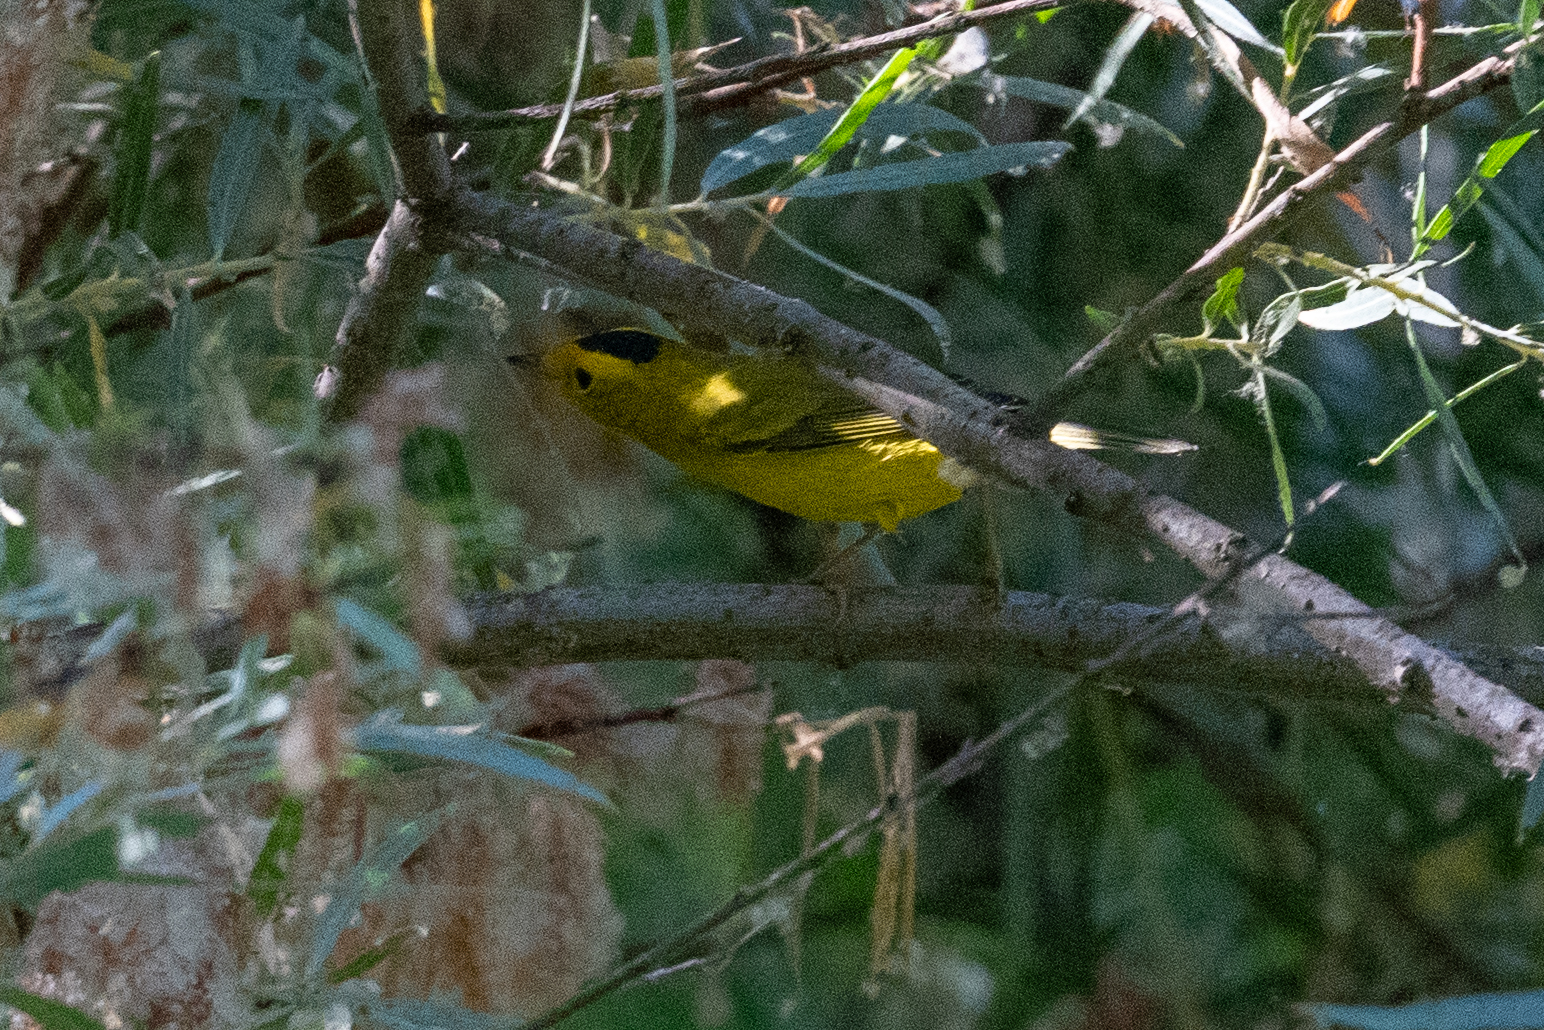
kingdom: Animalia
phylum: Chordata
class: Aves
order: Passeriformes
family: Parulidae
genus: Cardellina
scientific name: Cardellina pusilla
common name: Wilson's warbler
